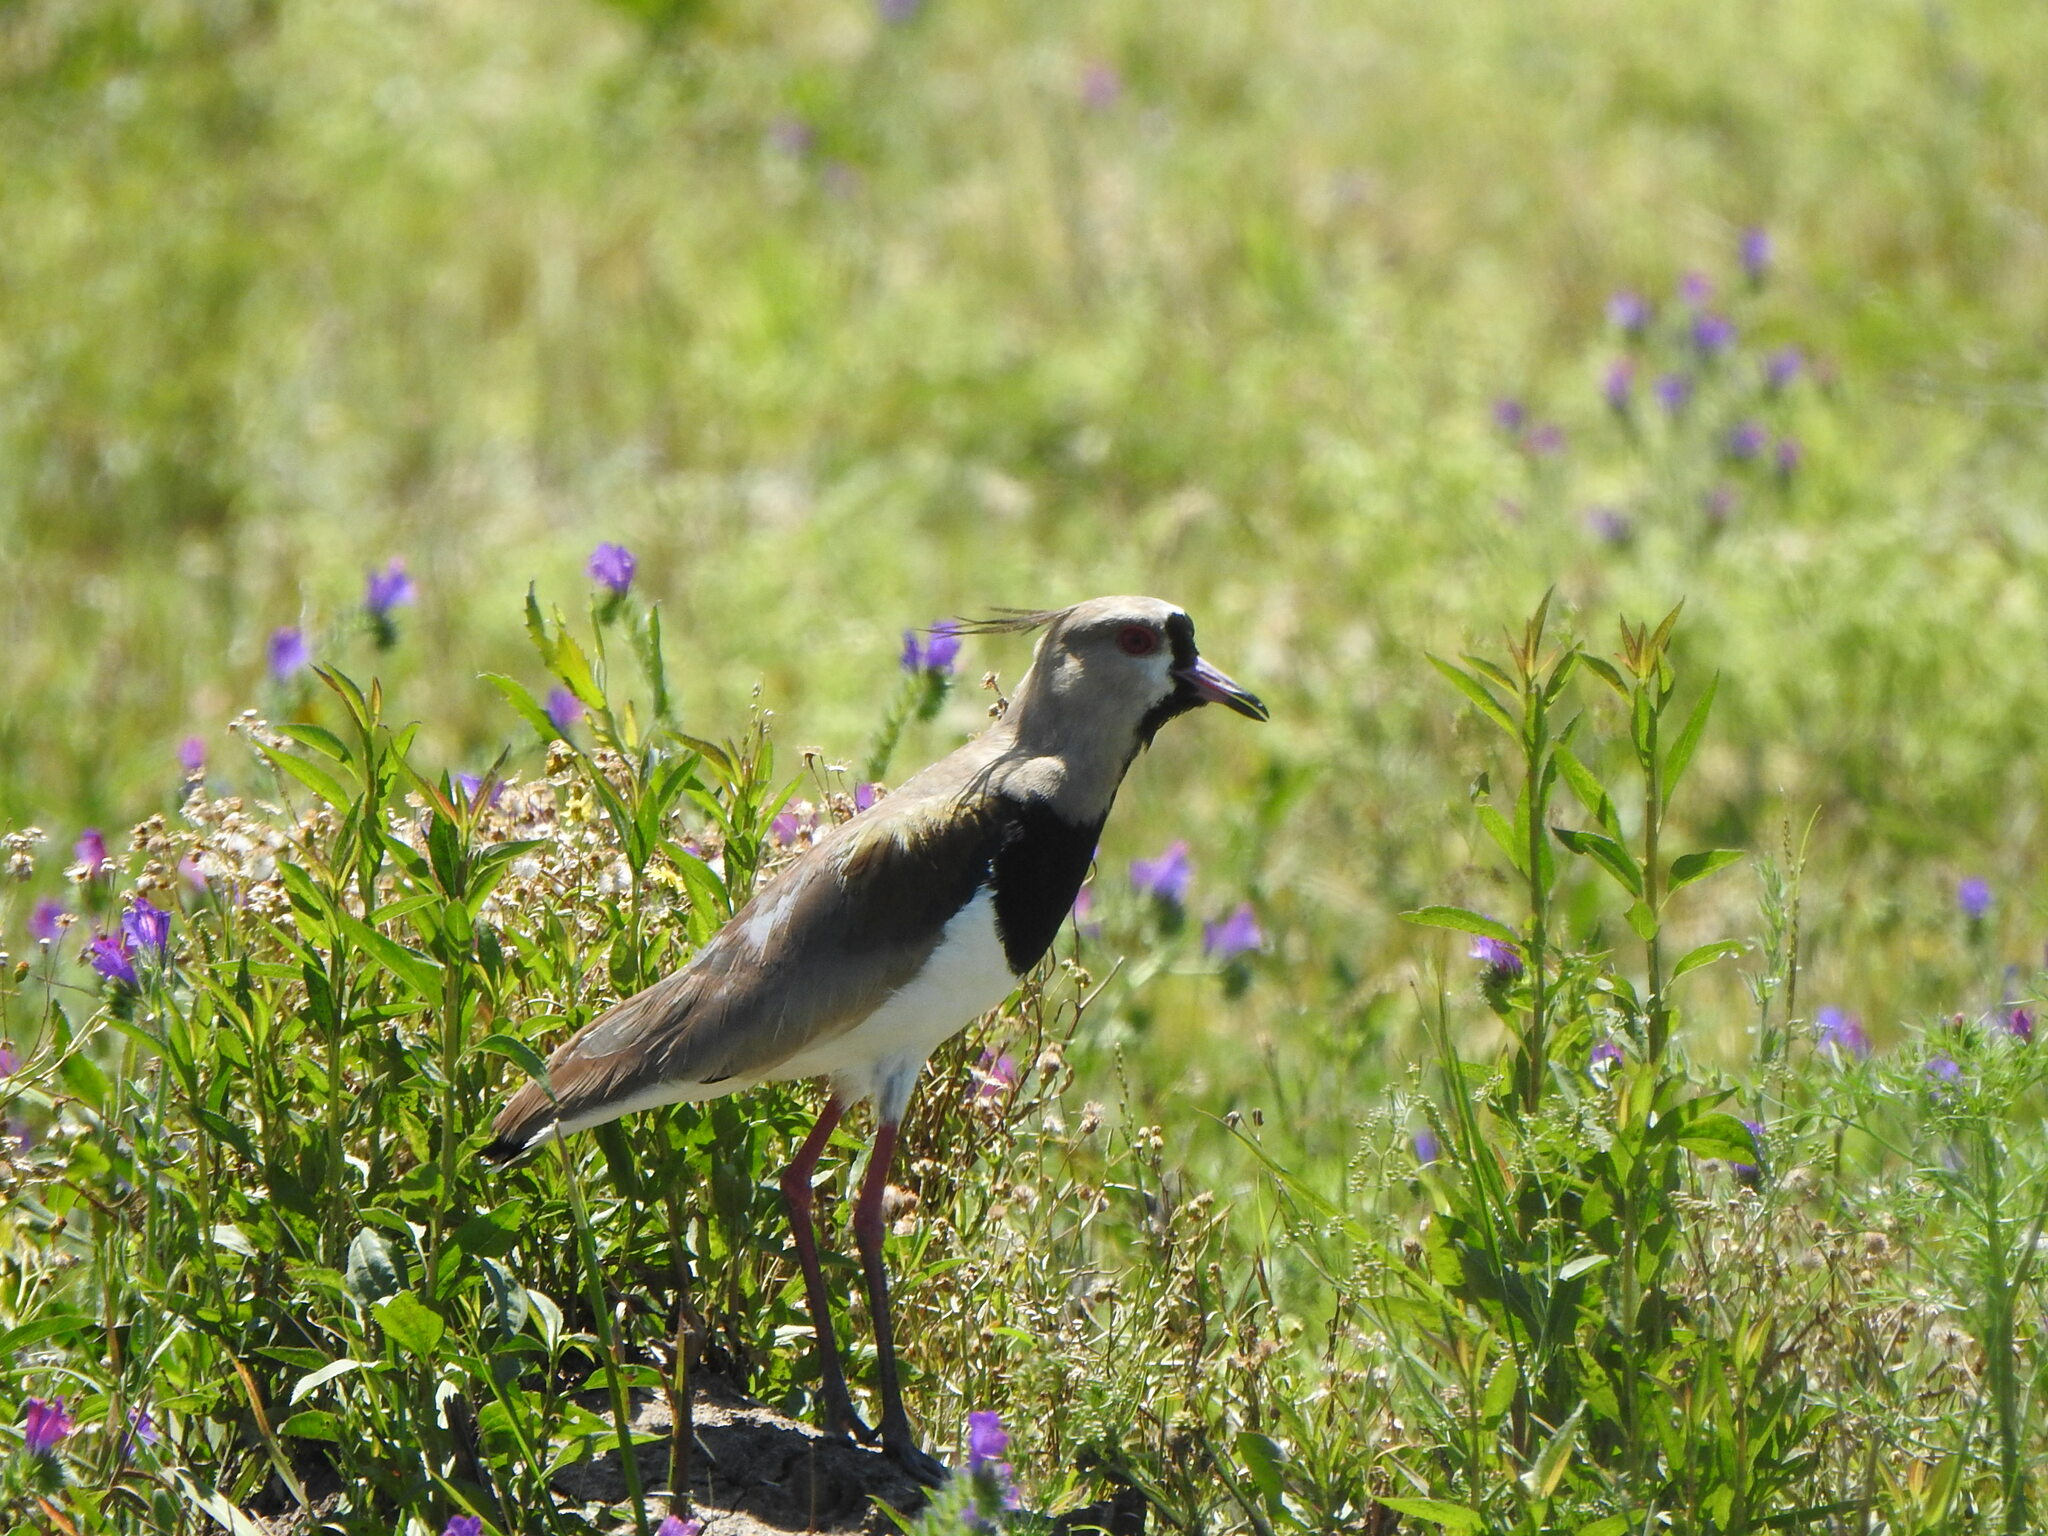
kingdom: Animalia
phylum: Chordata
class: Aves
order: Charadriiformes
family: Charadriidae
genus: Vanellus
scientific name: Vanellus chilensis
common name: Southern lapwing
